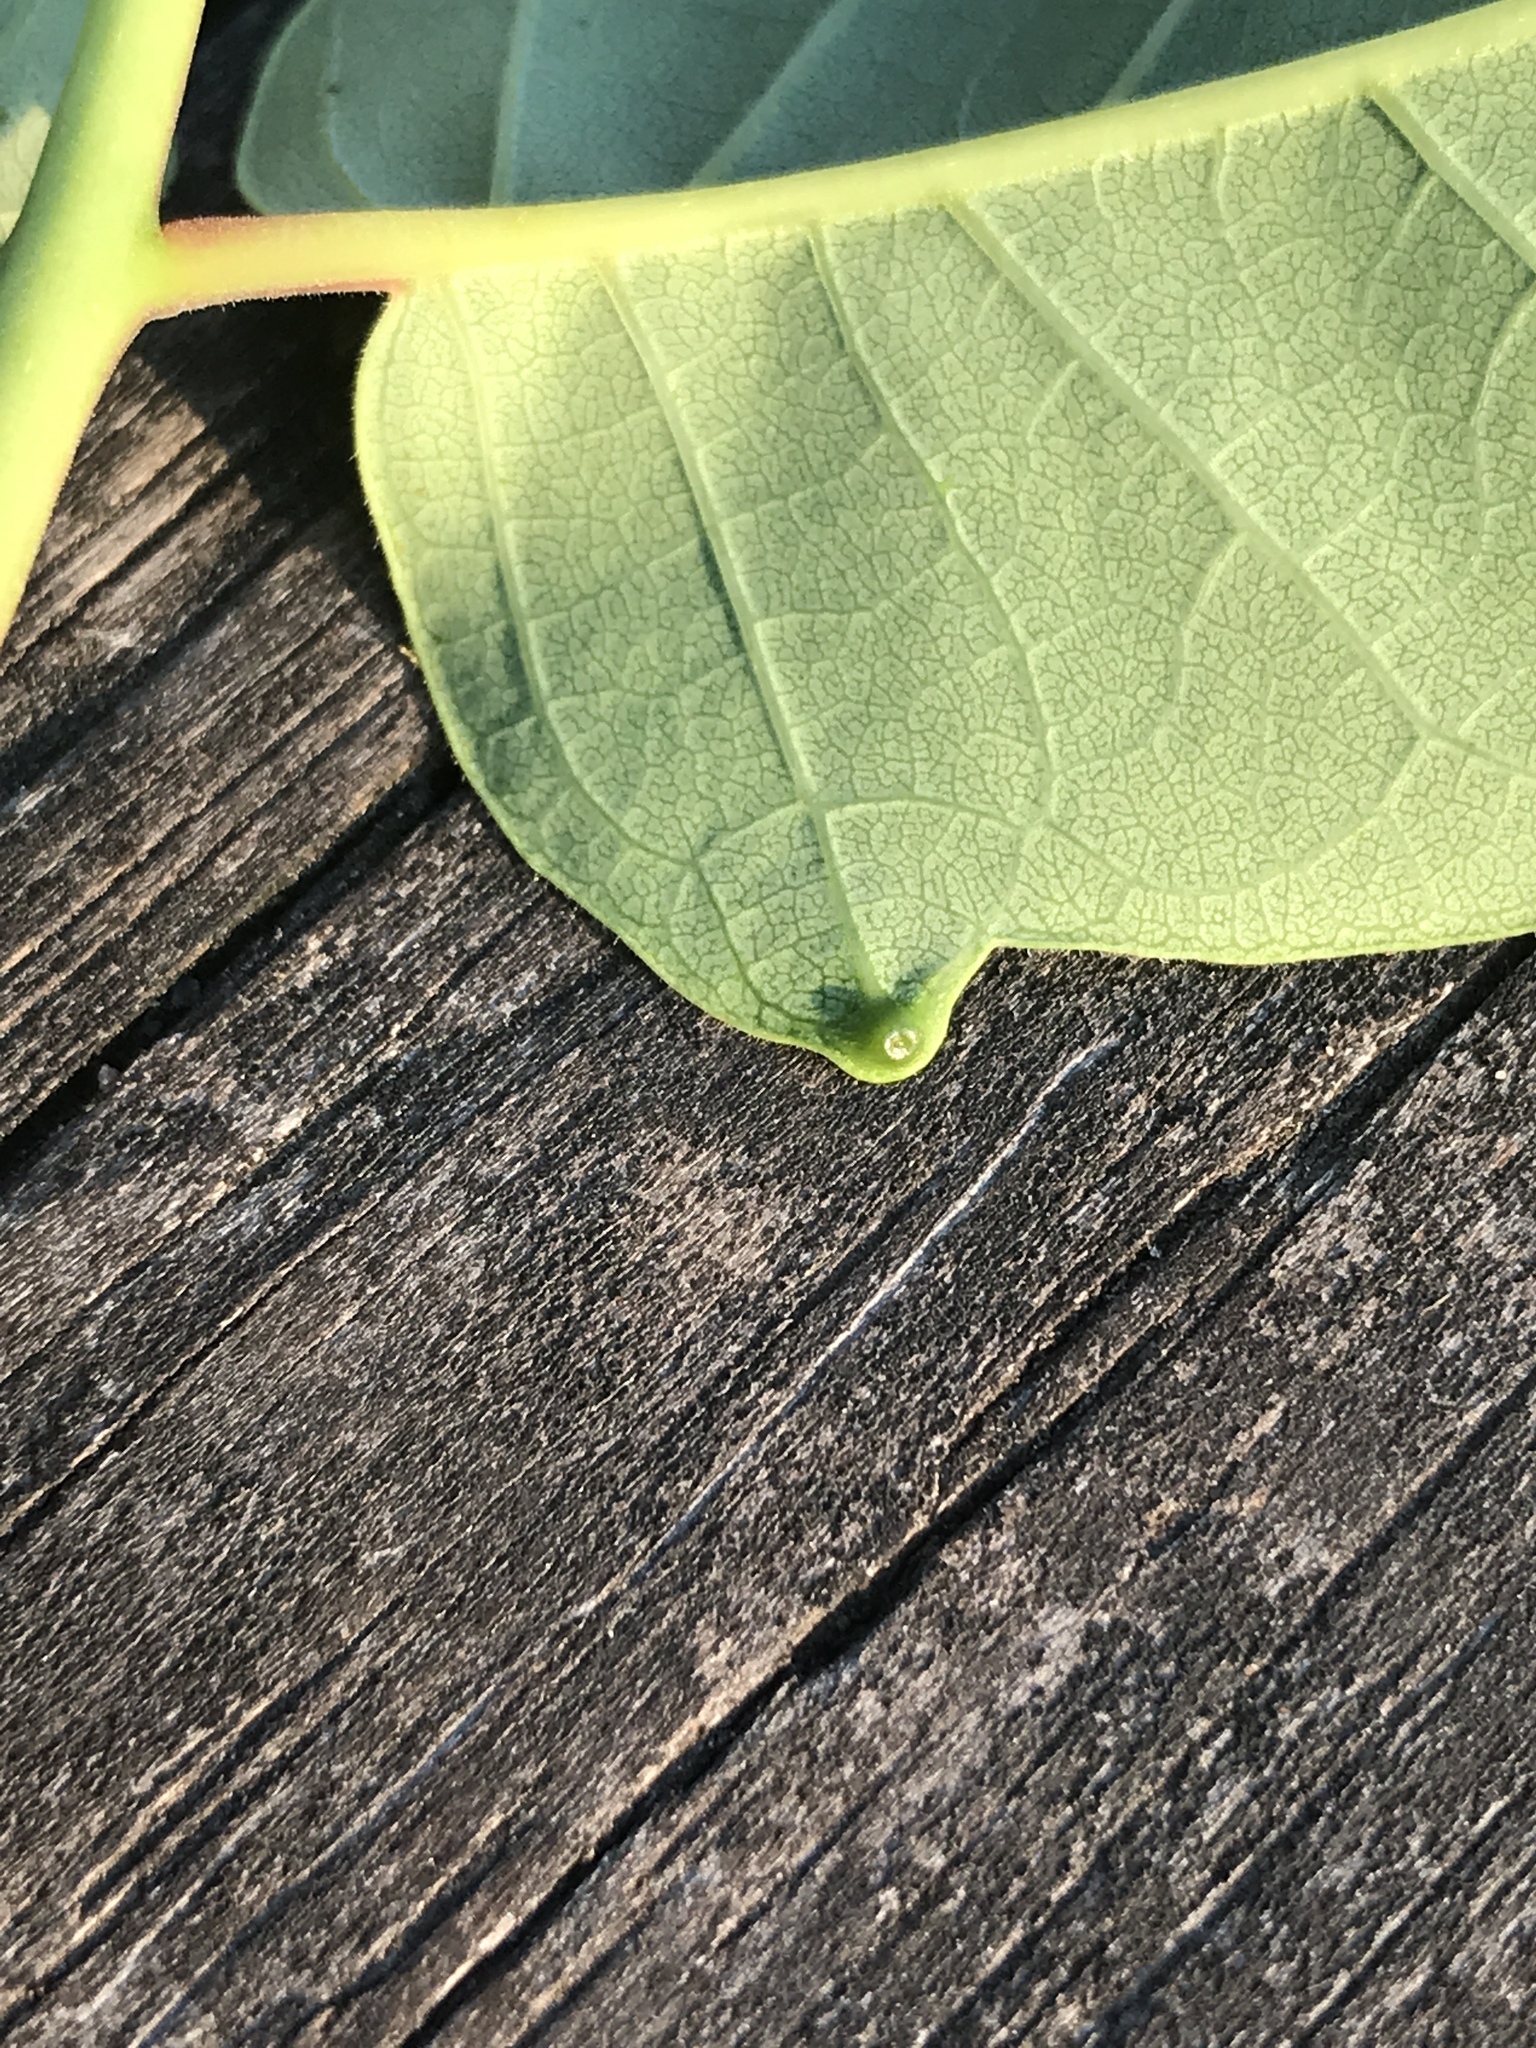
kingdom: Plantae
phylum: Tracheophyta
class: Magnoliopsida
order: Sapindales
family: Simaroubaceae
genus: Ailanthus
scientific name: Ailanthus altissima
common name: Tree-of-heaven
